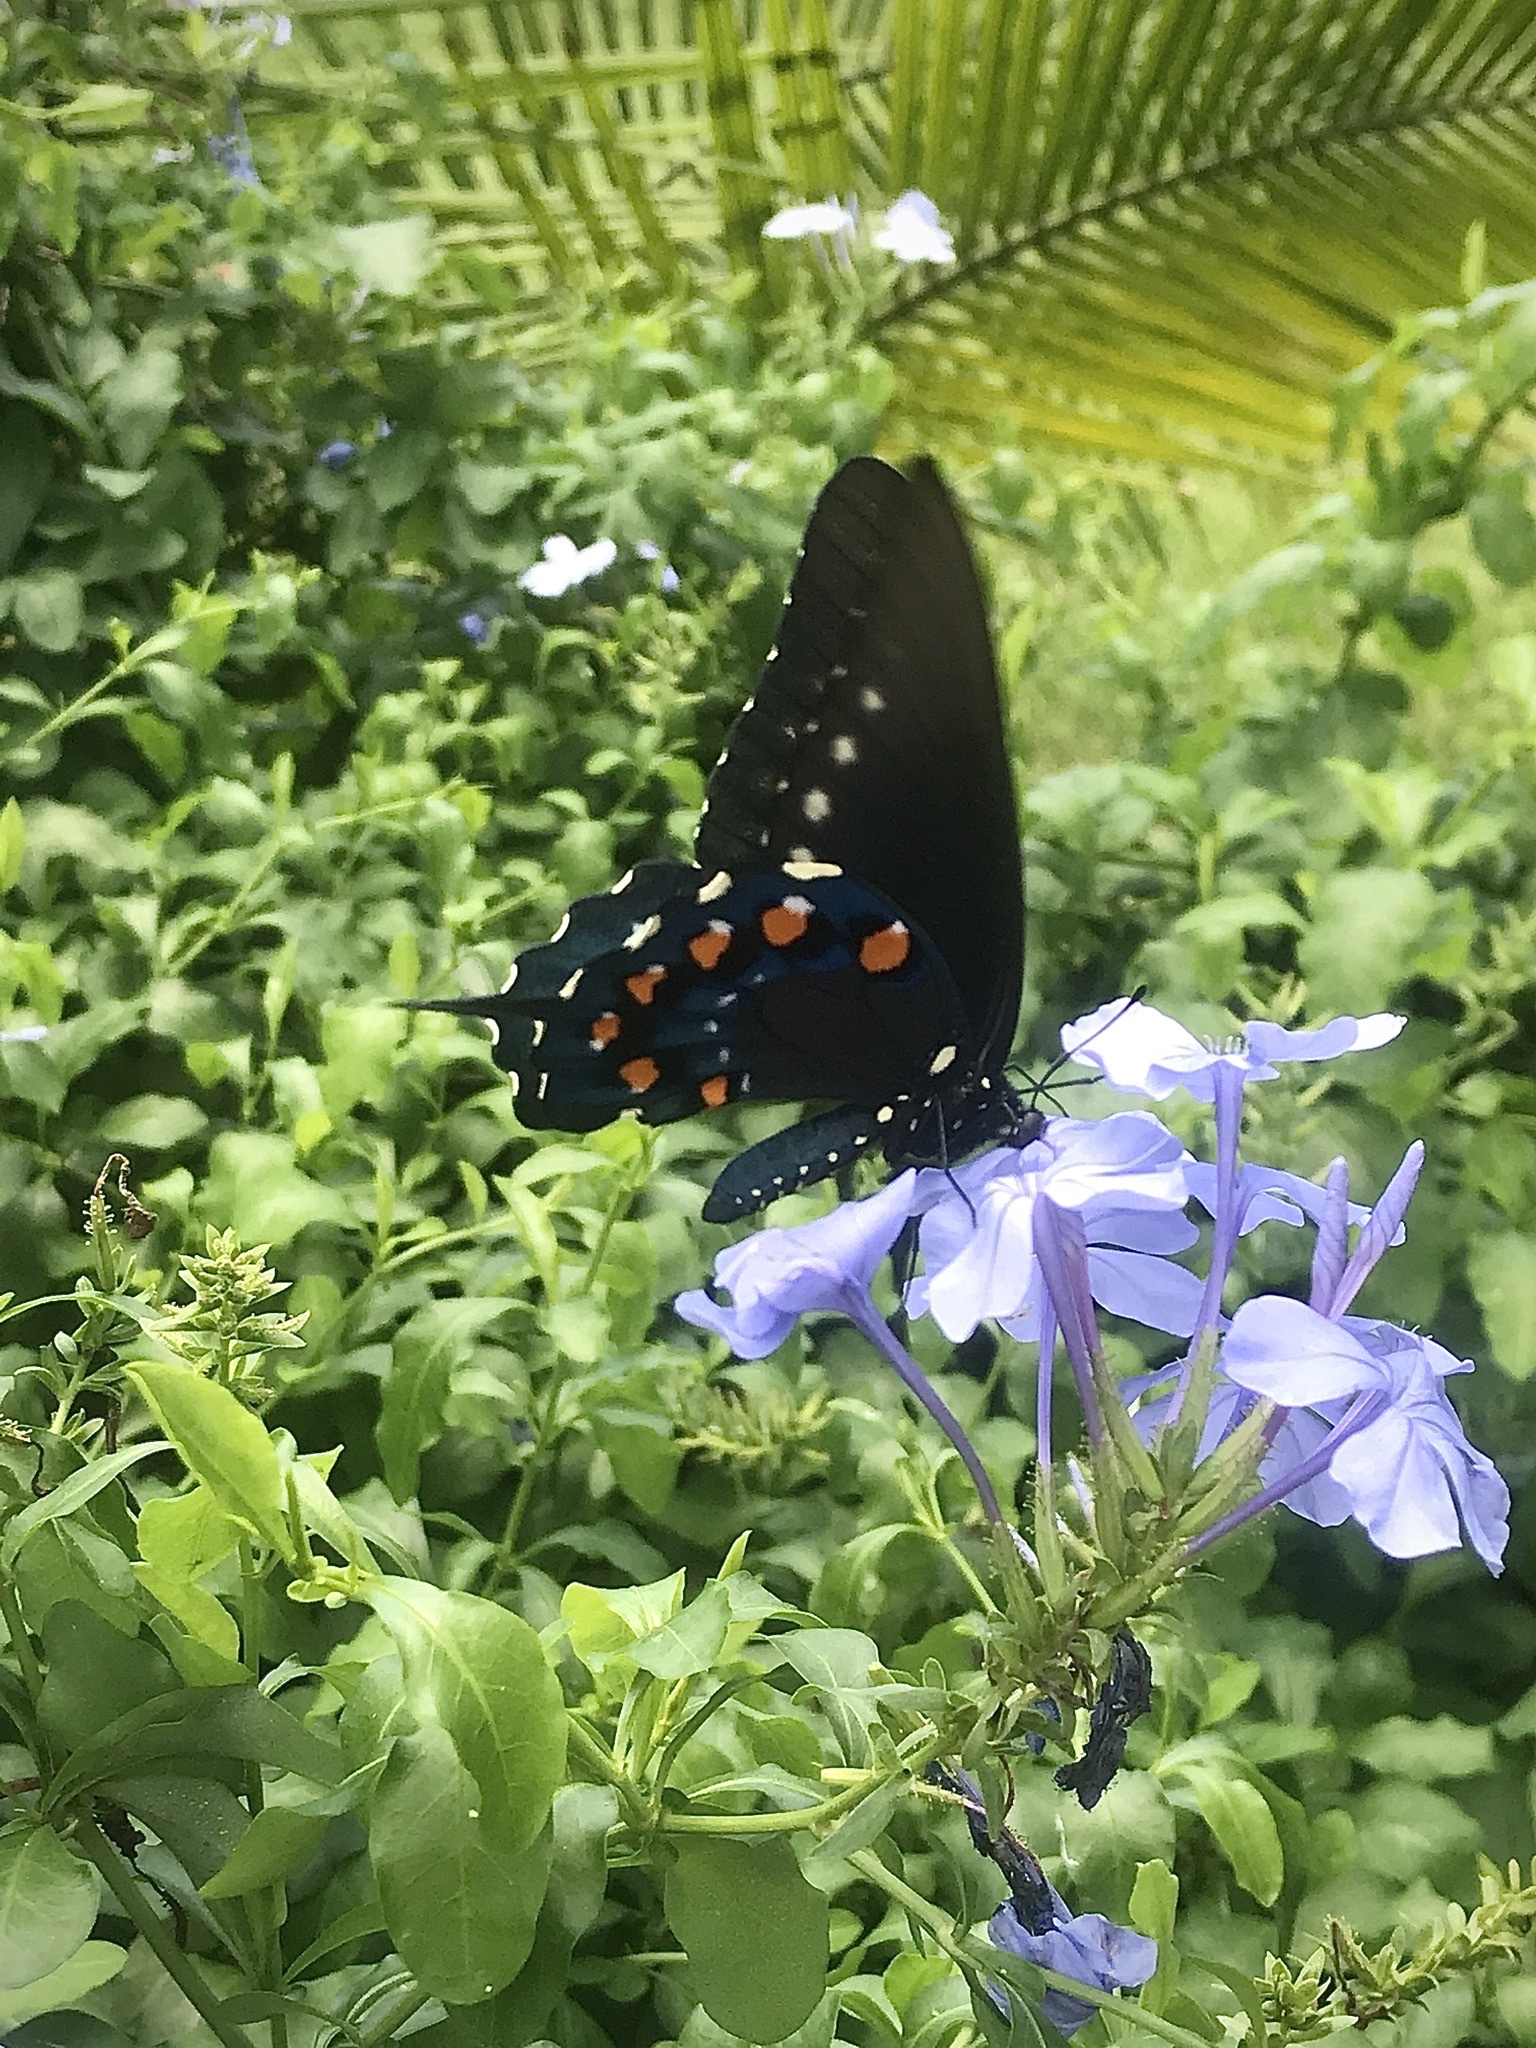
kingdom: Animalia
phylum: Arthropoda
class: Insecta
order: Lepidoptera
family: Papilionidae
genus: Battus
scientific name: Battus philenor
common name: Pipevine swallowtail
